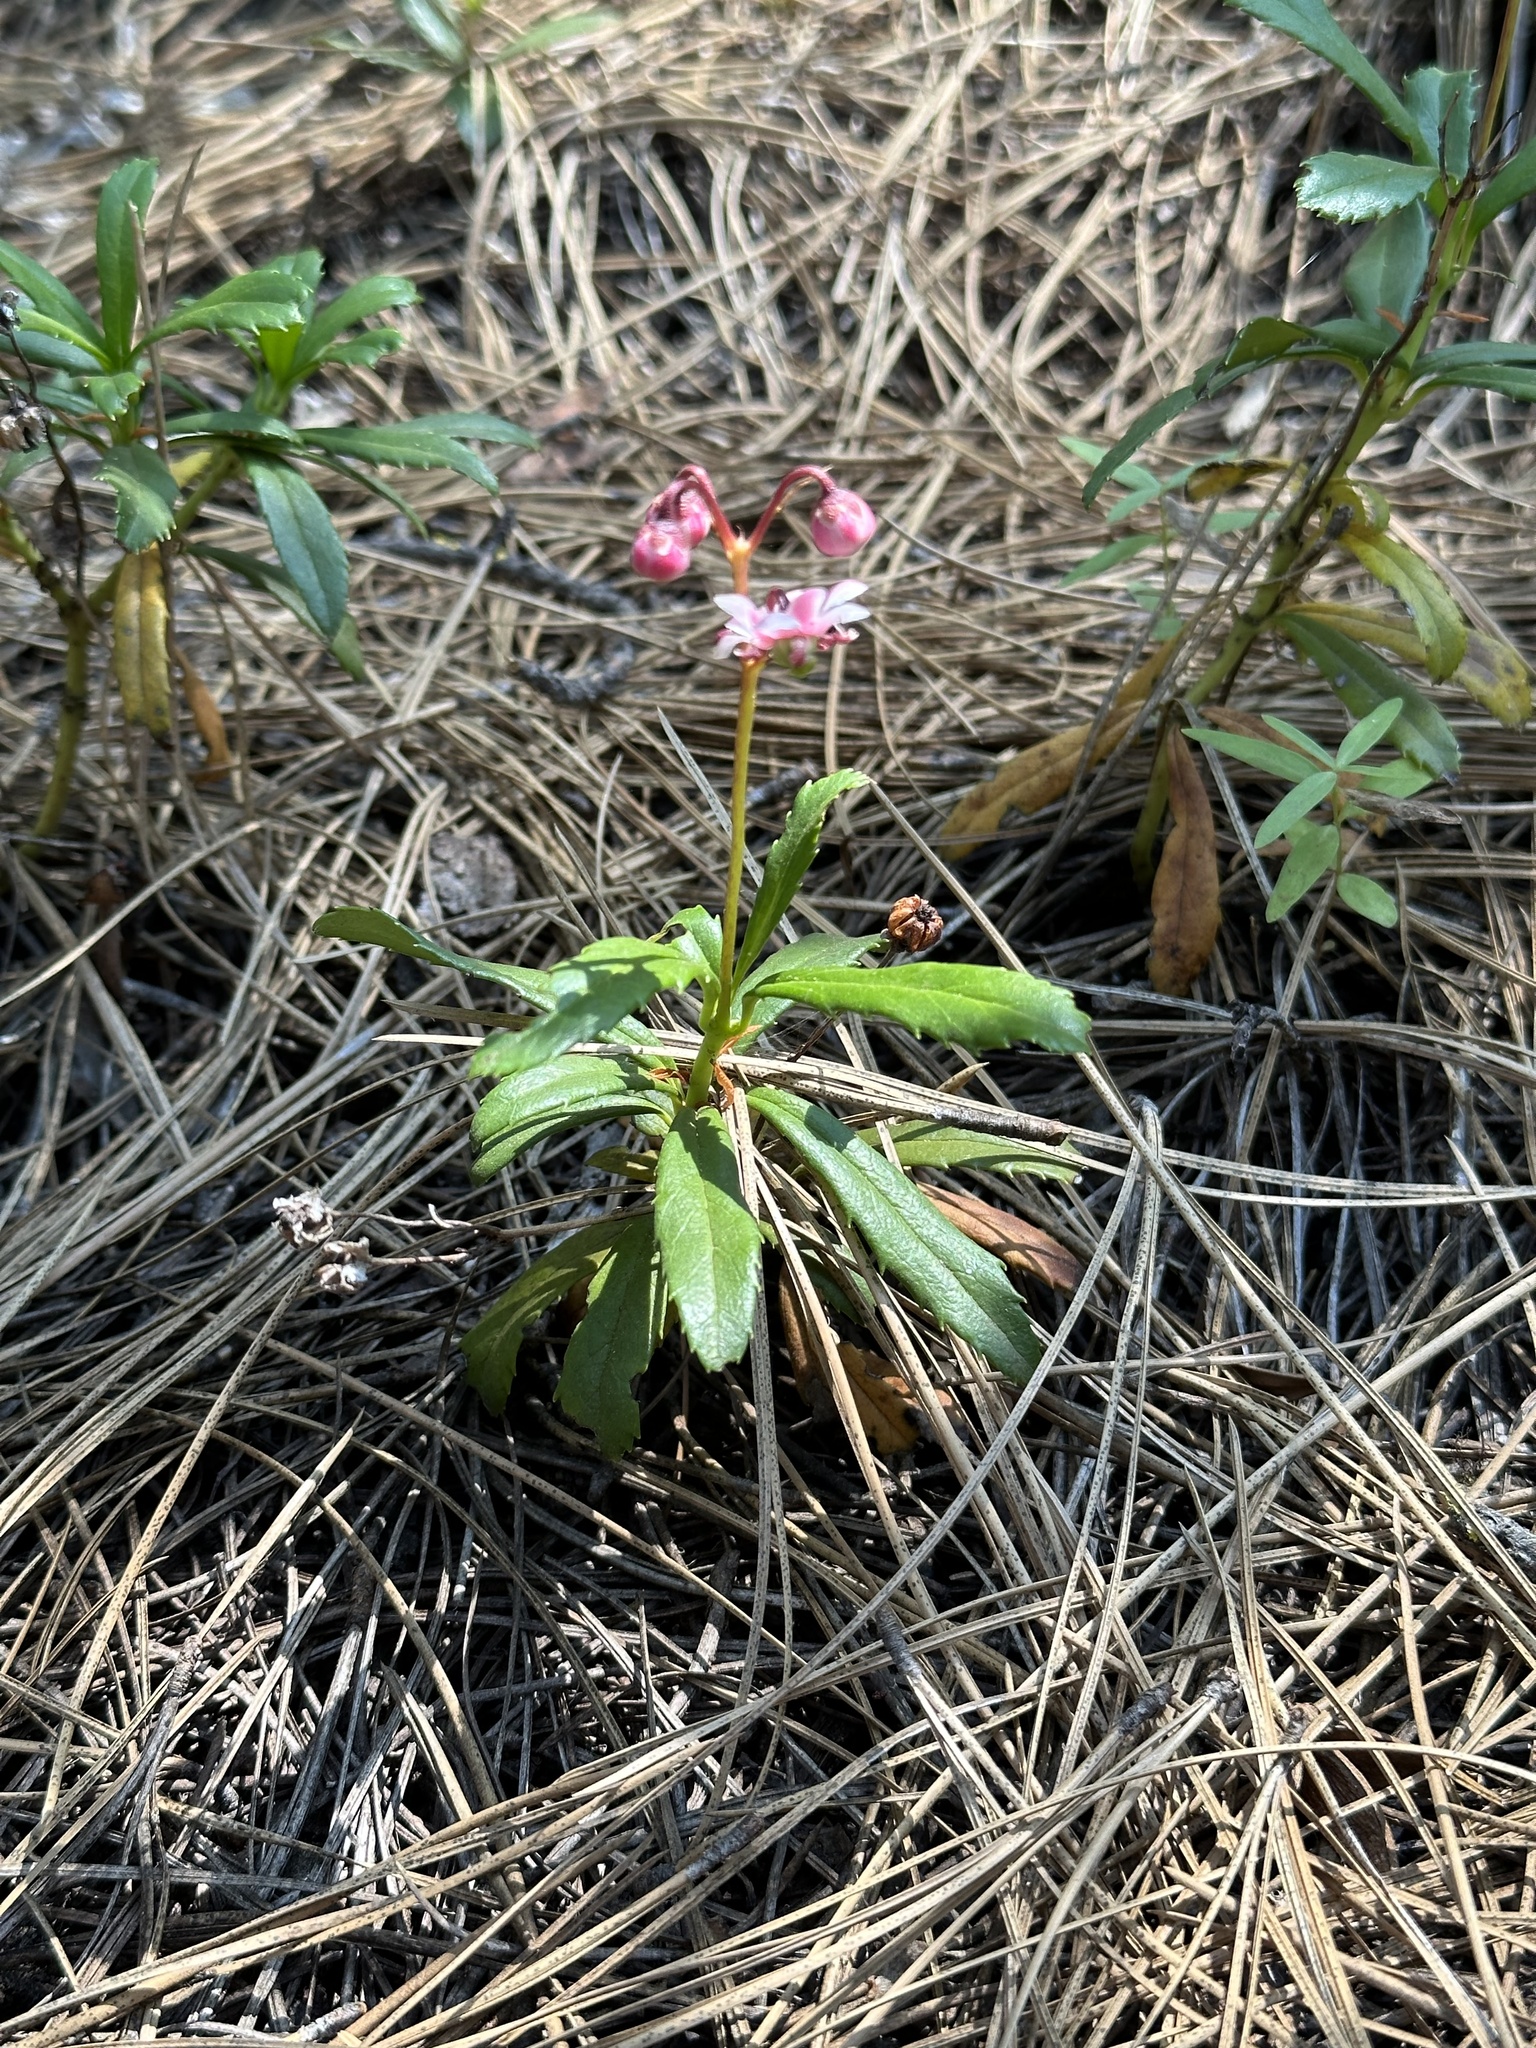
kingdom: Plantae
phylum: Tracheophyta
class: Magnoliopsida
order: Ericales
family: Ericaceae
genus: Chimaphila
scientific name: Chimaphila umbellata
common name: Pipsissewa
